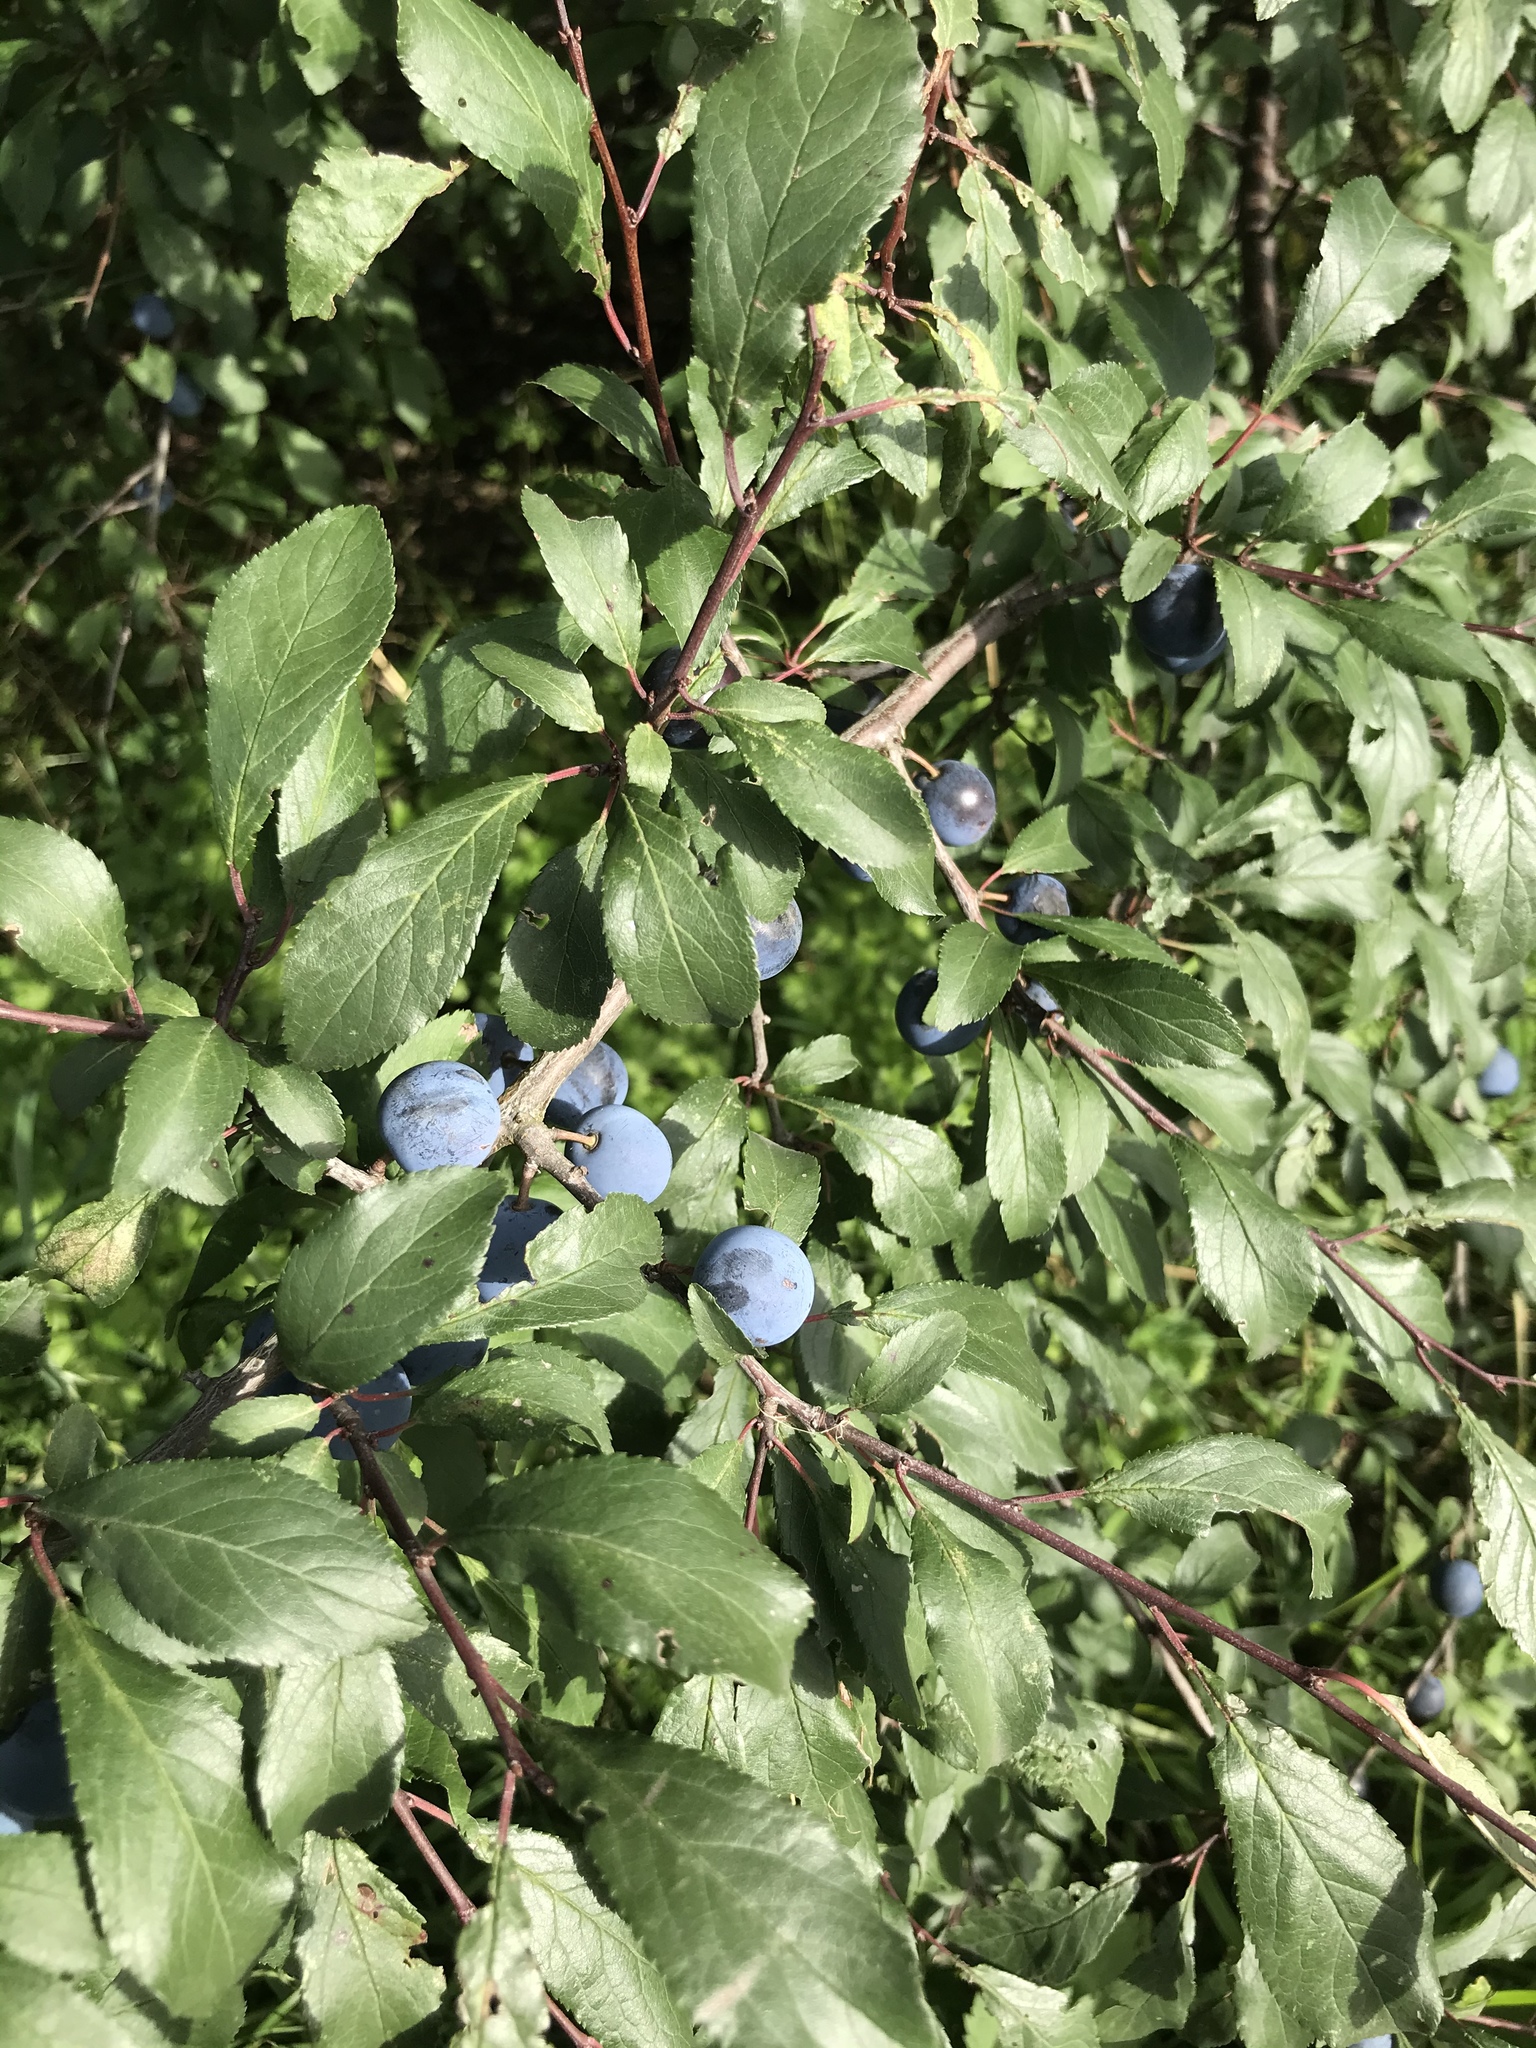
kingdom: Plantae
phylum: Tracheophyta
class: Magnoliopsida
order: Rosales
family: Rosaceae
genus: Prunus
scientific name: Prunus spinosa
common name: Blackthorn
